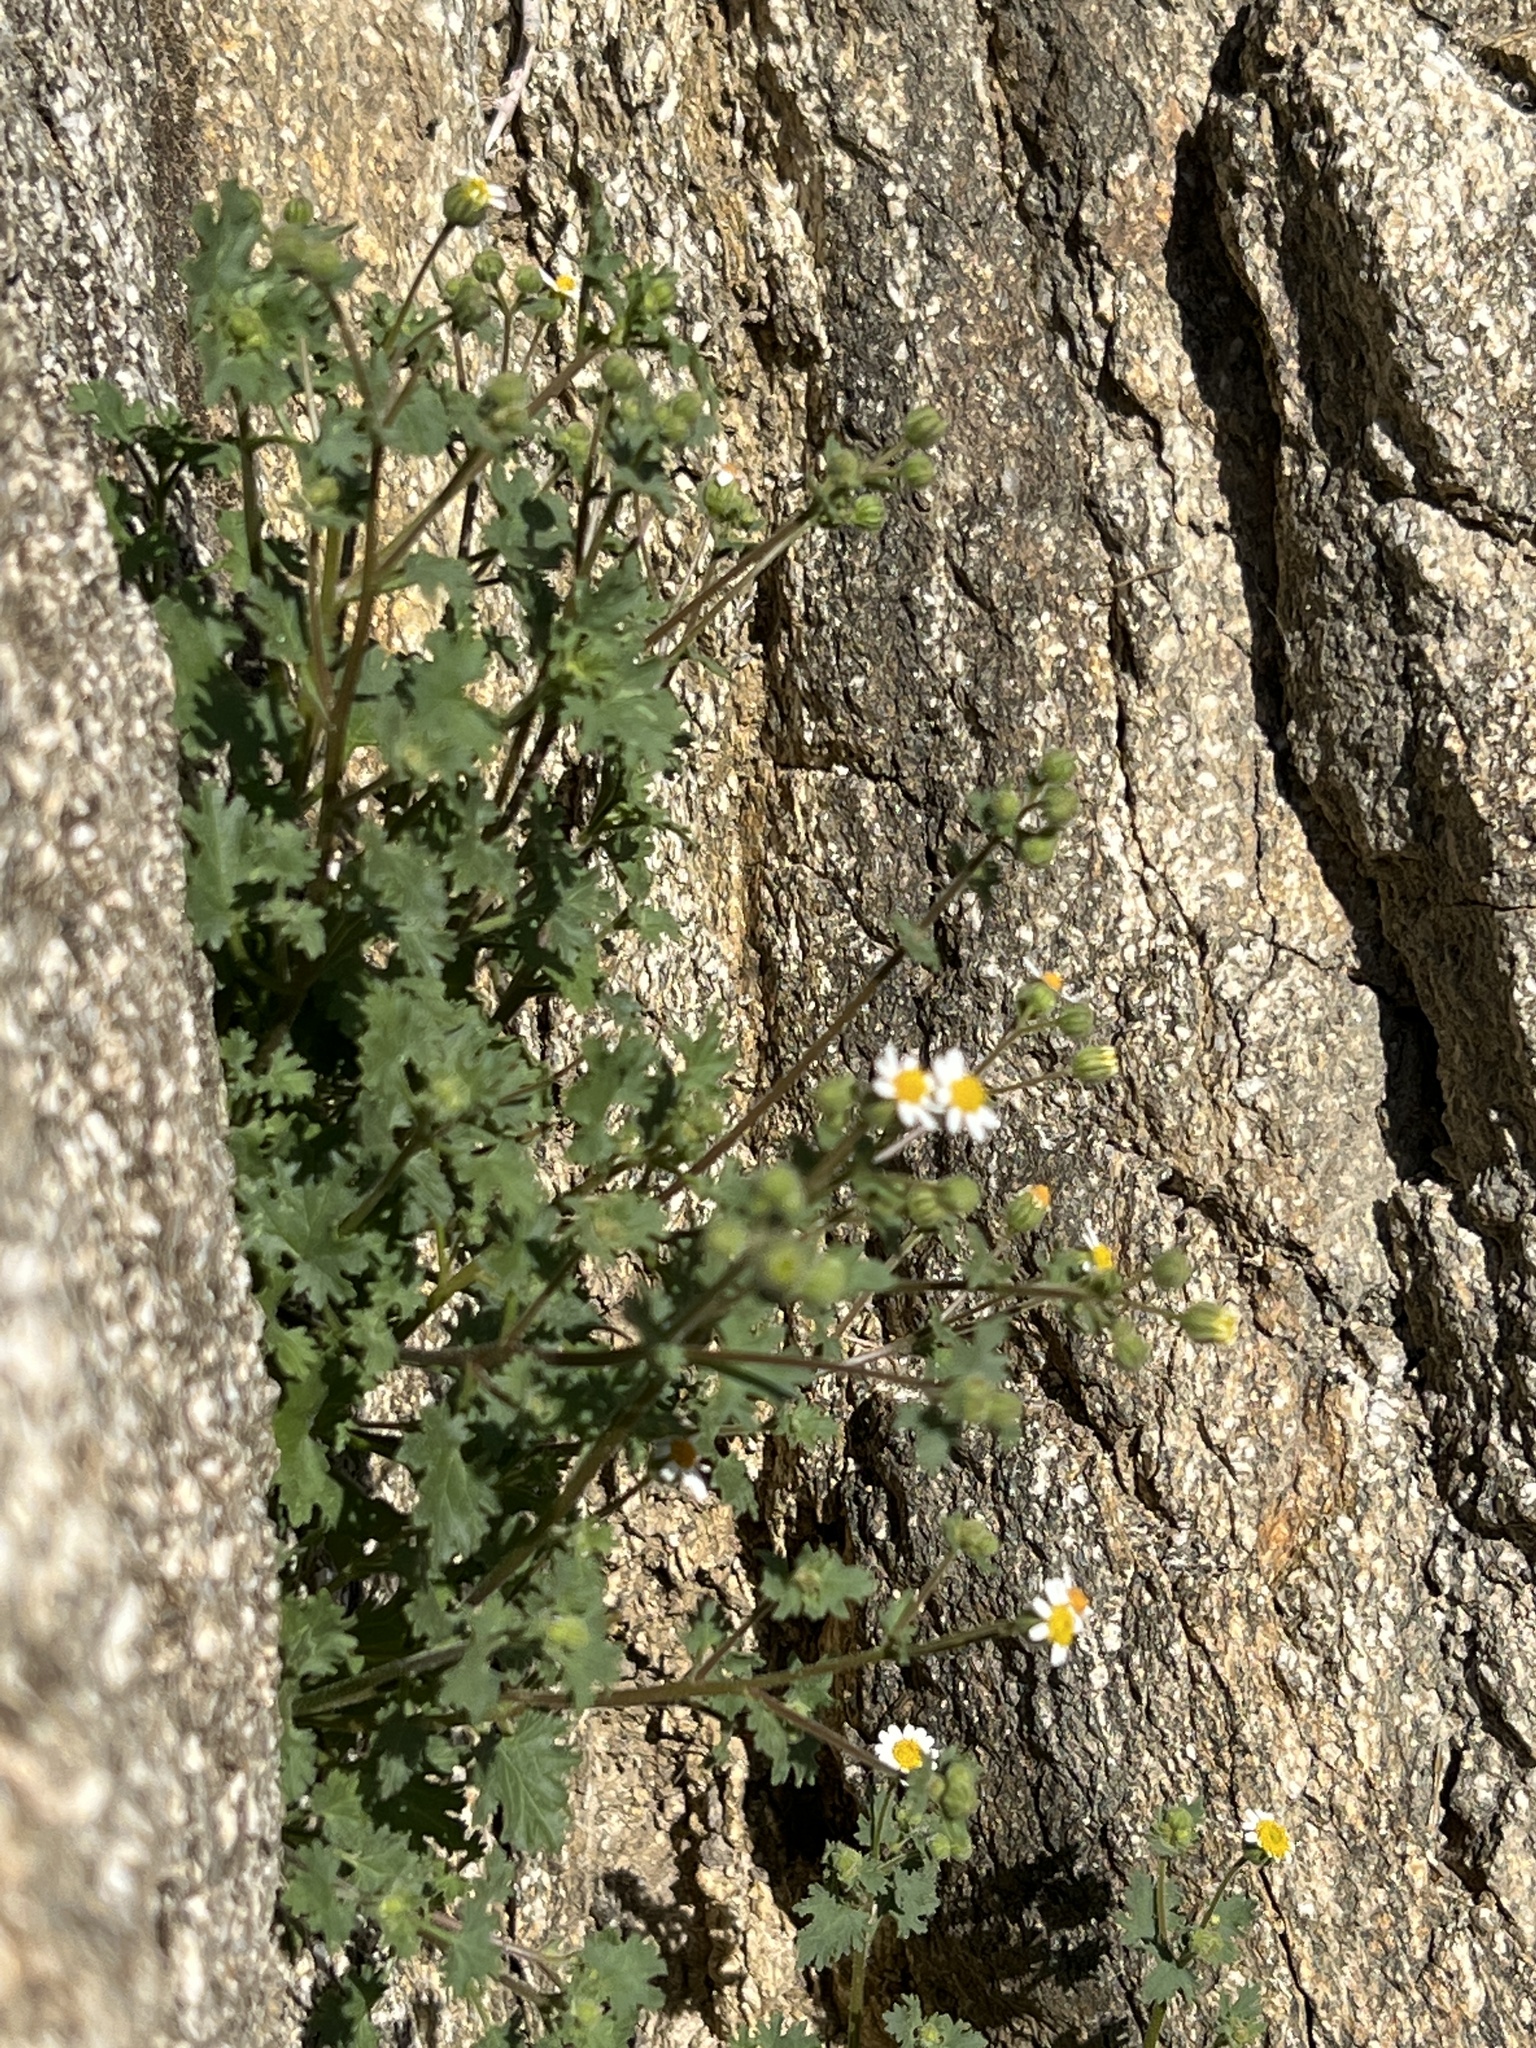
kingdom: Plantae
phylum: Tracheophyta
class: Magnoliopsida
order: Asterales
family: Asteraceae
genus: Laphamia
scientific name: Laphamia emoryi
